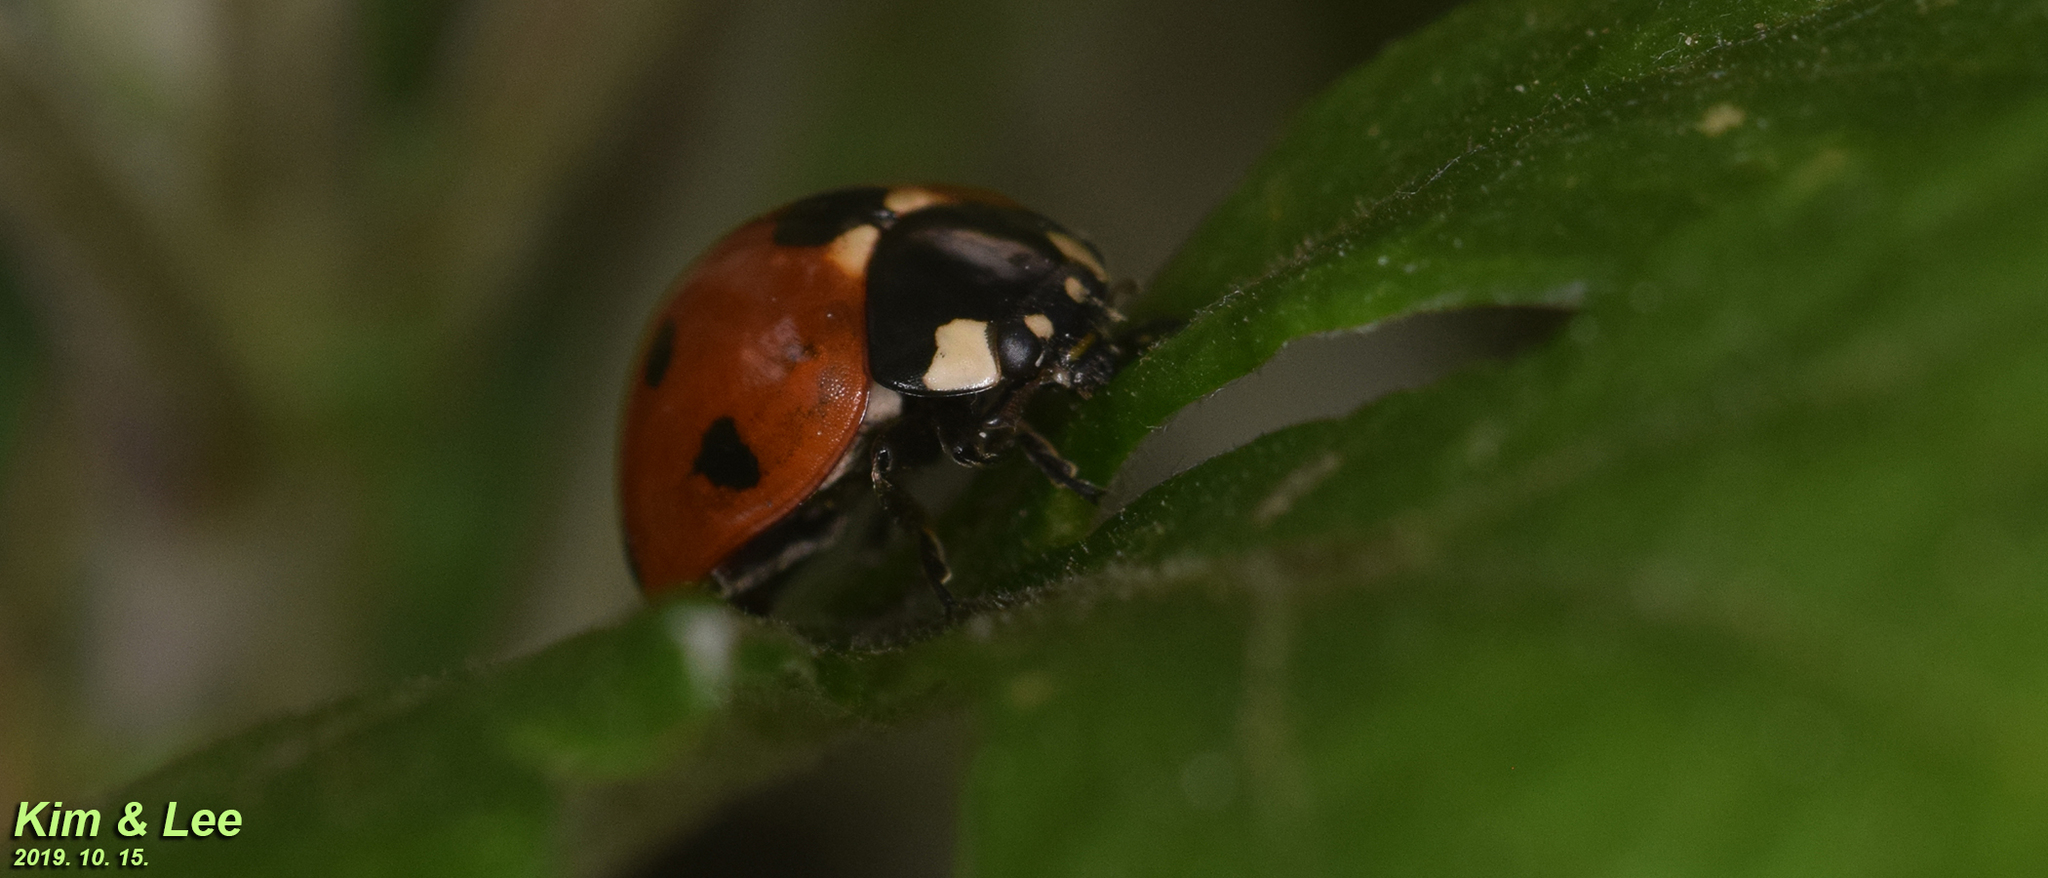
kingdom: Animalia
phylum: Arthropoda
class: Insecta
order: Coleoptera
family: Coccinellidae
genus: Coccinella
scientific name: Coccinella septempunctata
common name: Sevenspotted lady beetle
